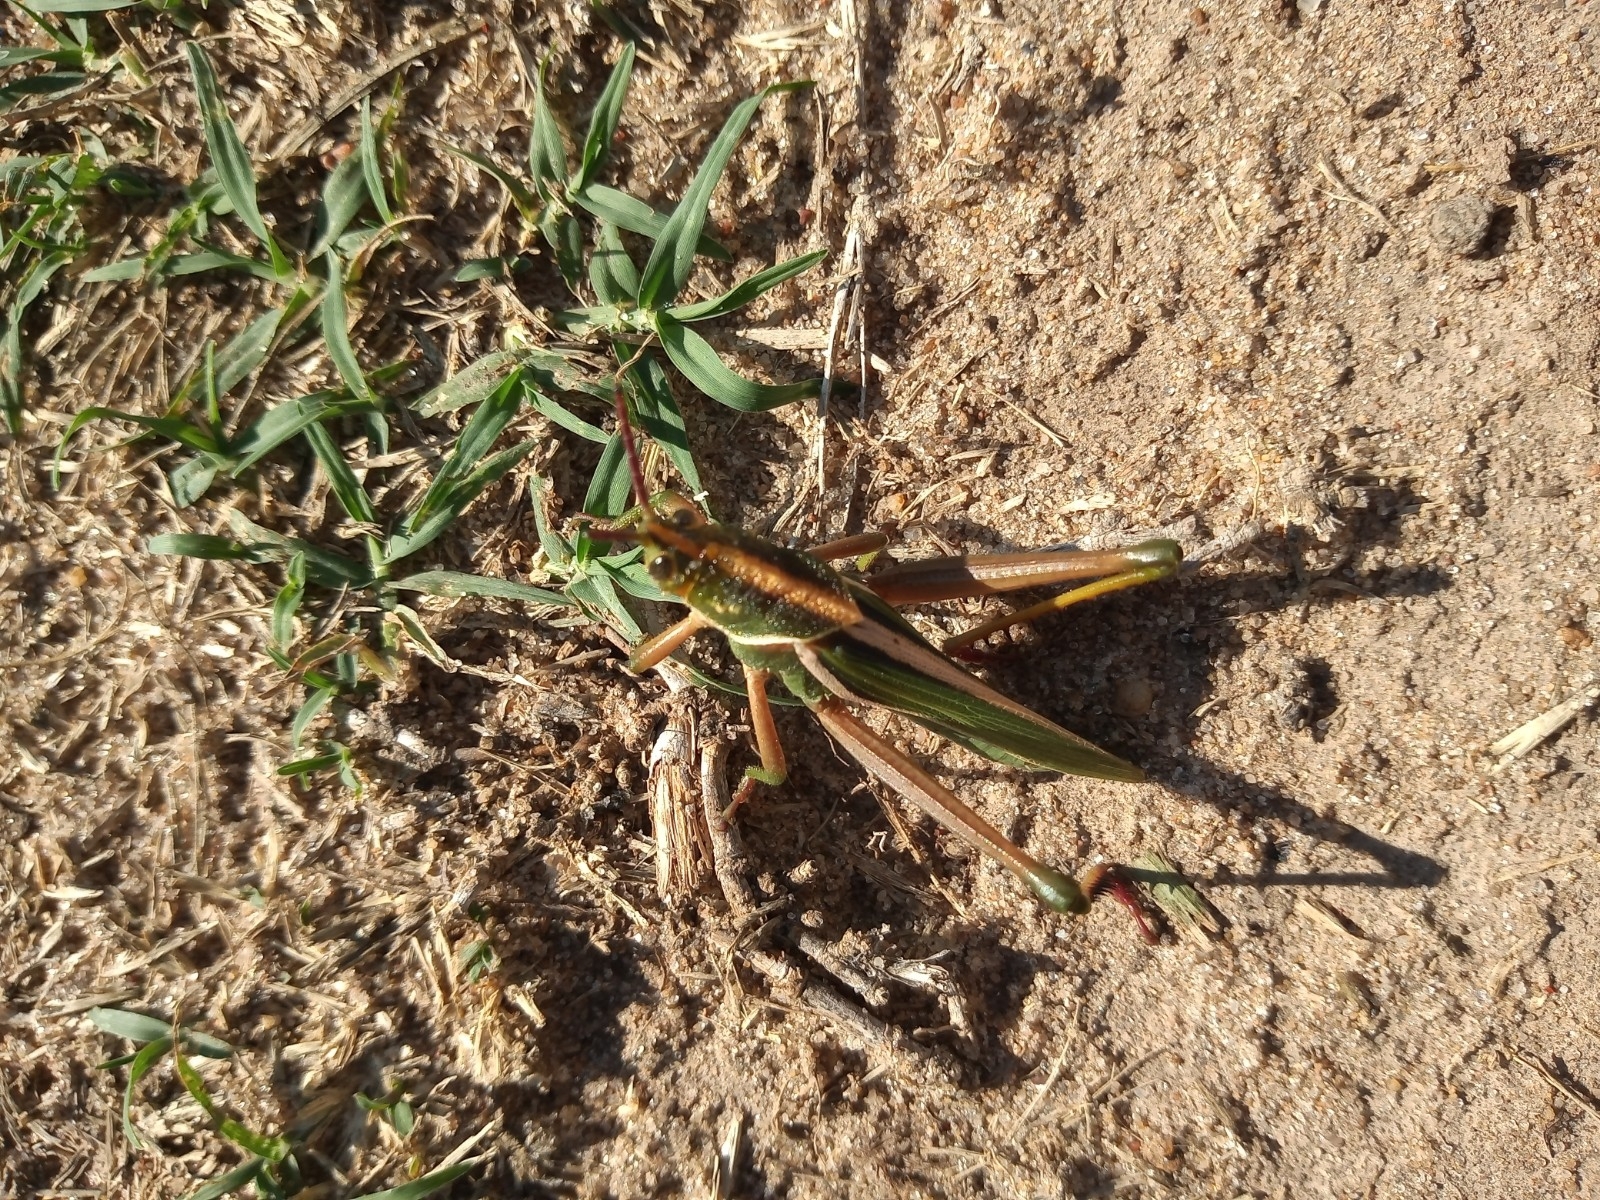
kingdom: Animalia
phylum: Arthropoda
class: Insecta
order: Orthoptera
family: Romaleidae
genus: Staleochlora
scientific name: Staleochlora viridicata
